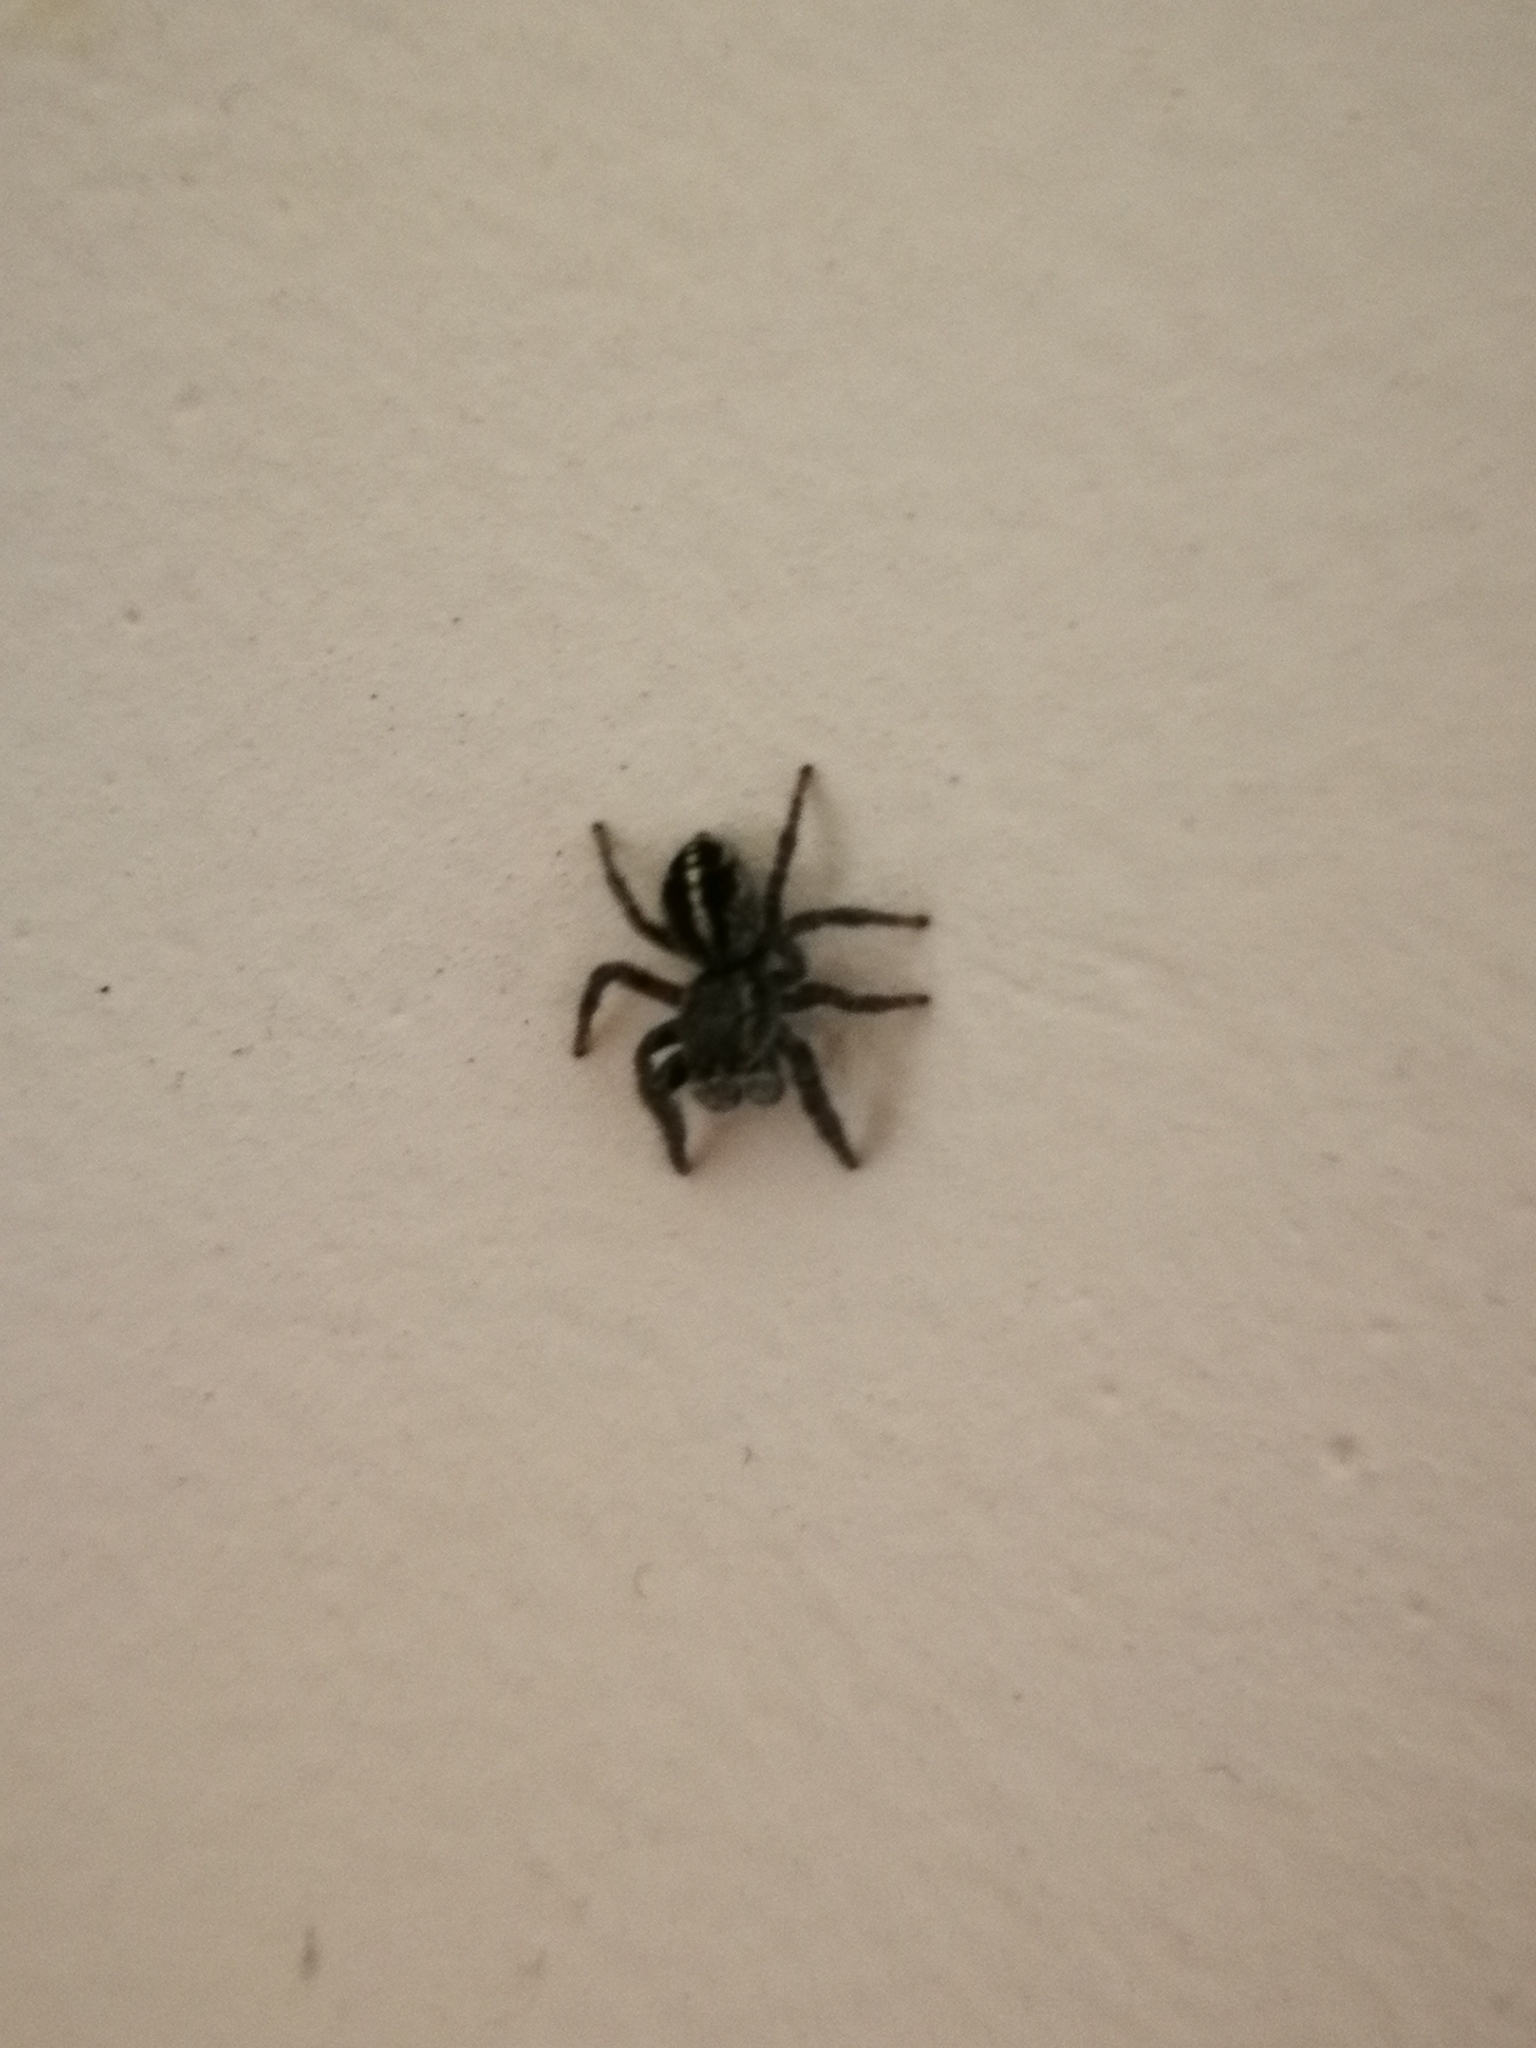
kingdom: Animalia
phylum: Arthropoda
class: Arachnida
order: Araneae
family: Salticidae
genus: Pellenes
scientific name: Pellenes tripunctatus
